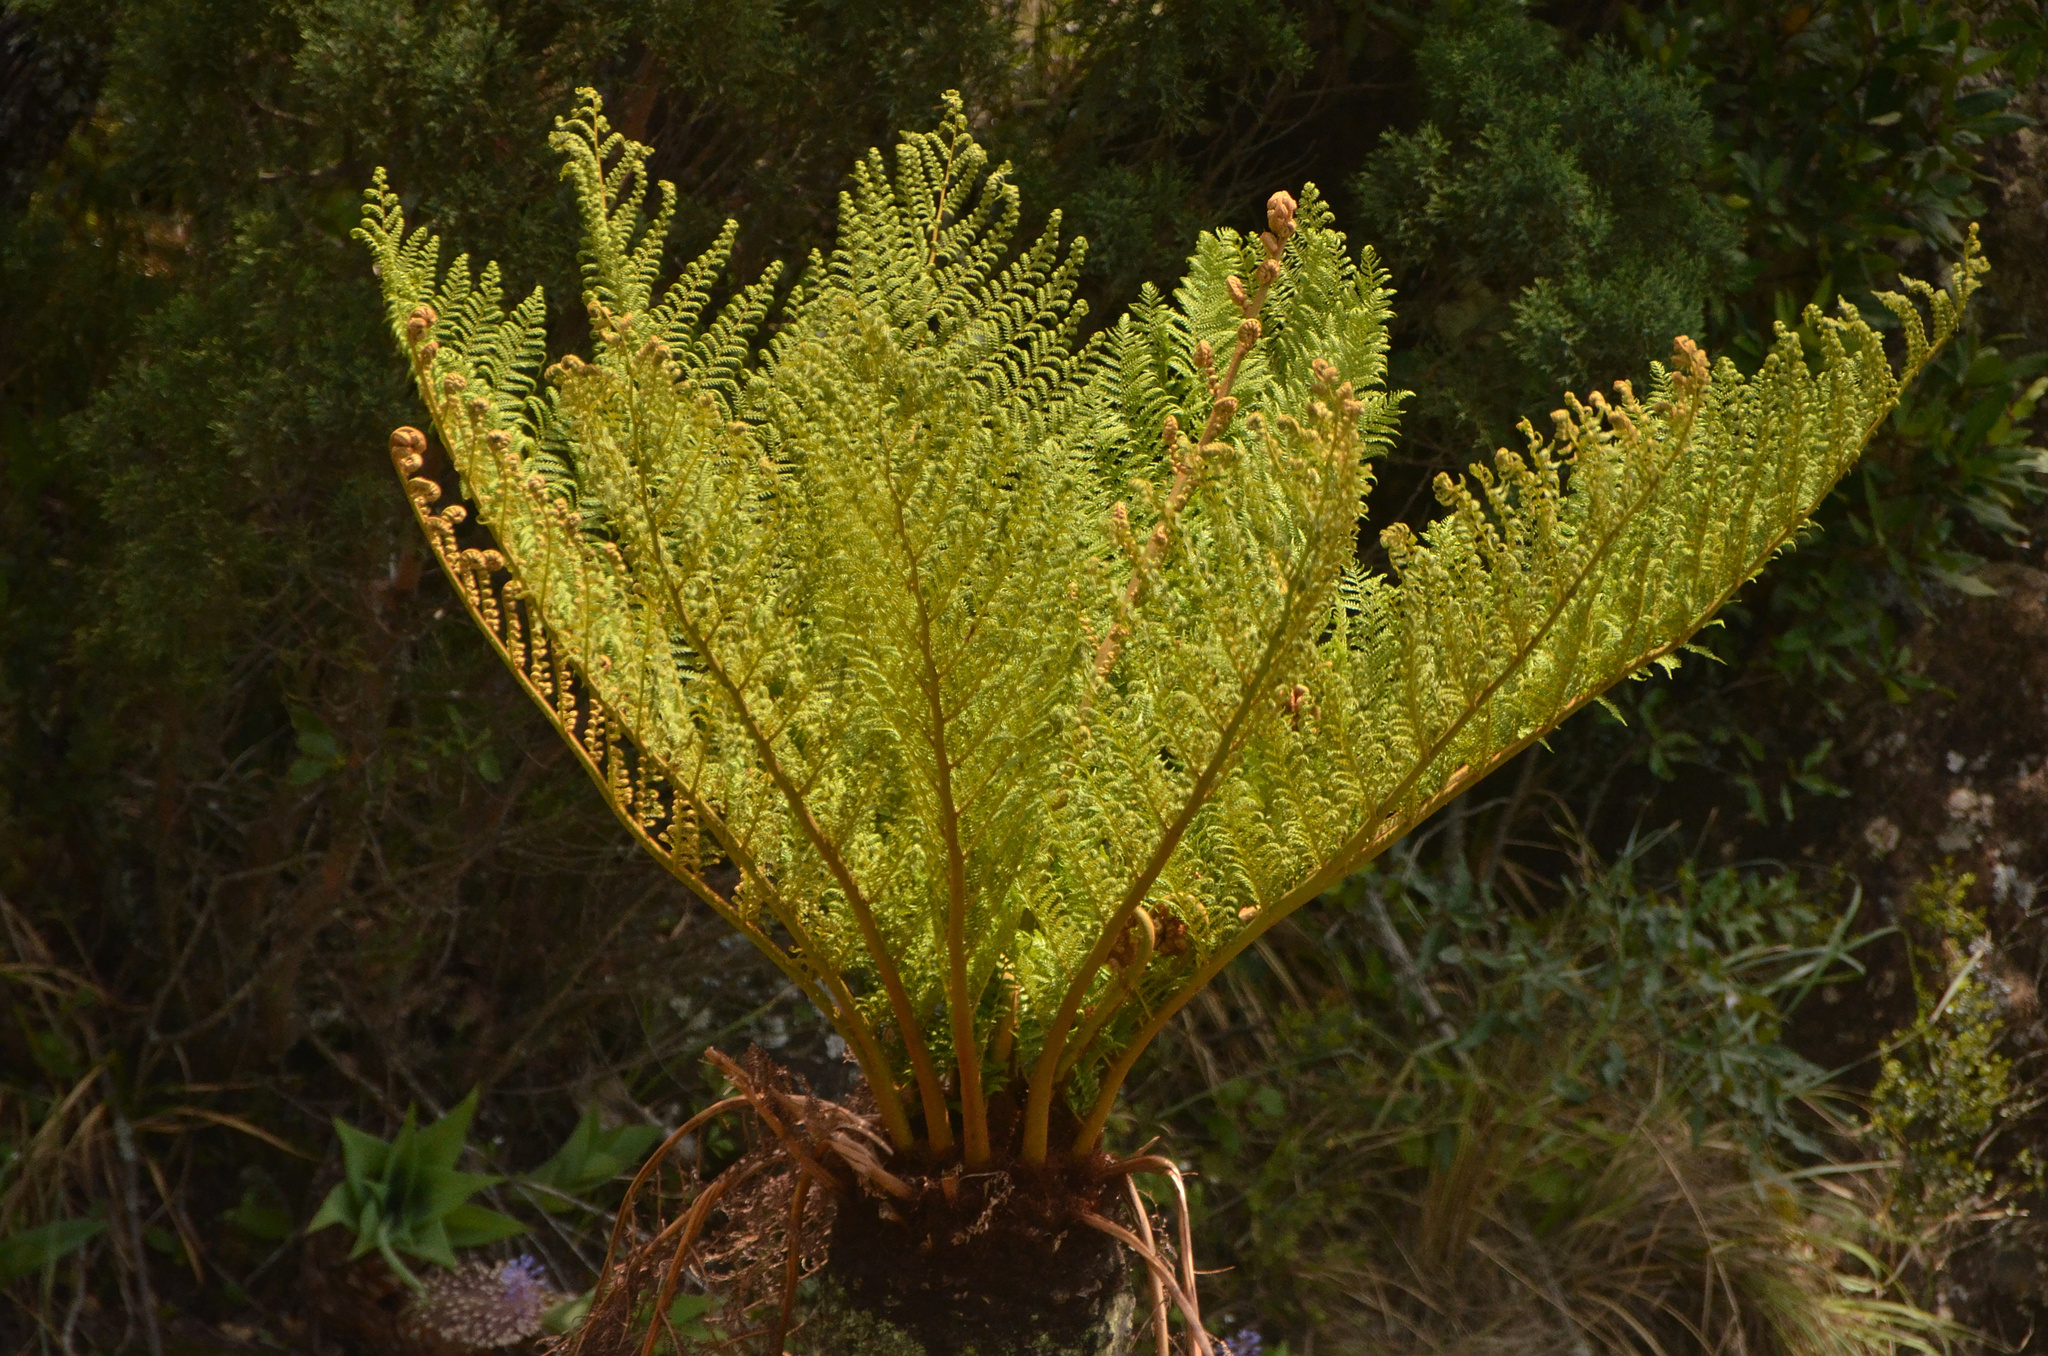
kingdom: Plantae
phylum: Tracheophyta
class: Polypodiopsida
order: Cyatheales
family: Cyatheaceae
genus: Alsophila
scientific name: Alsophila dregei
